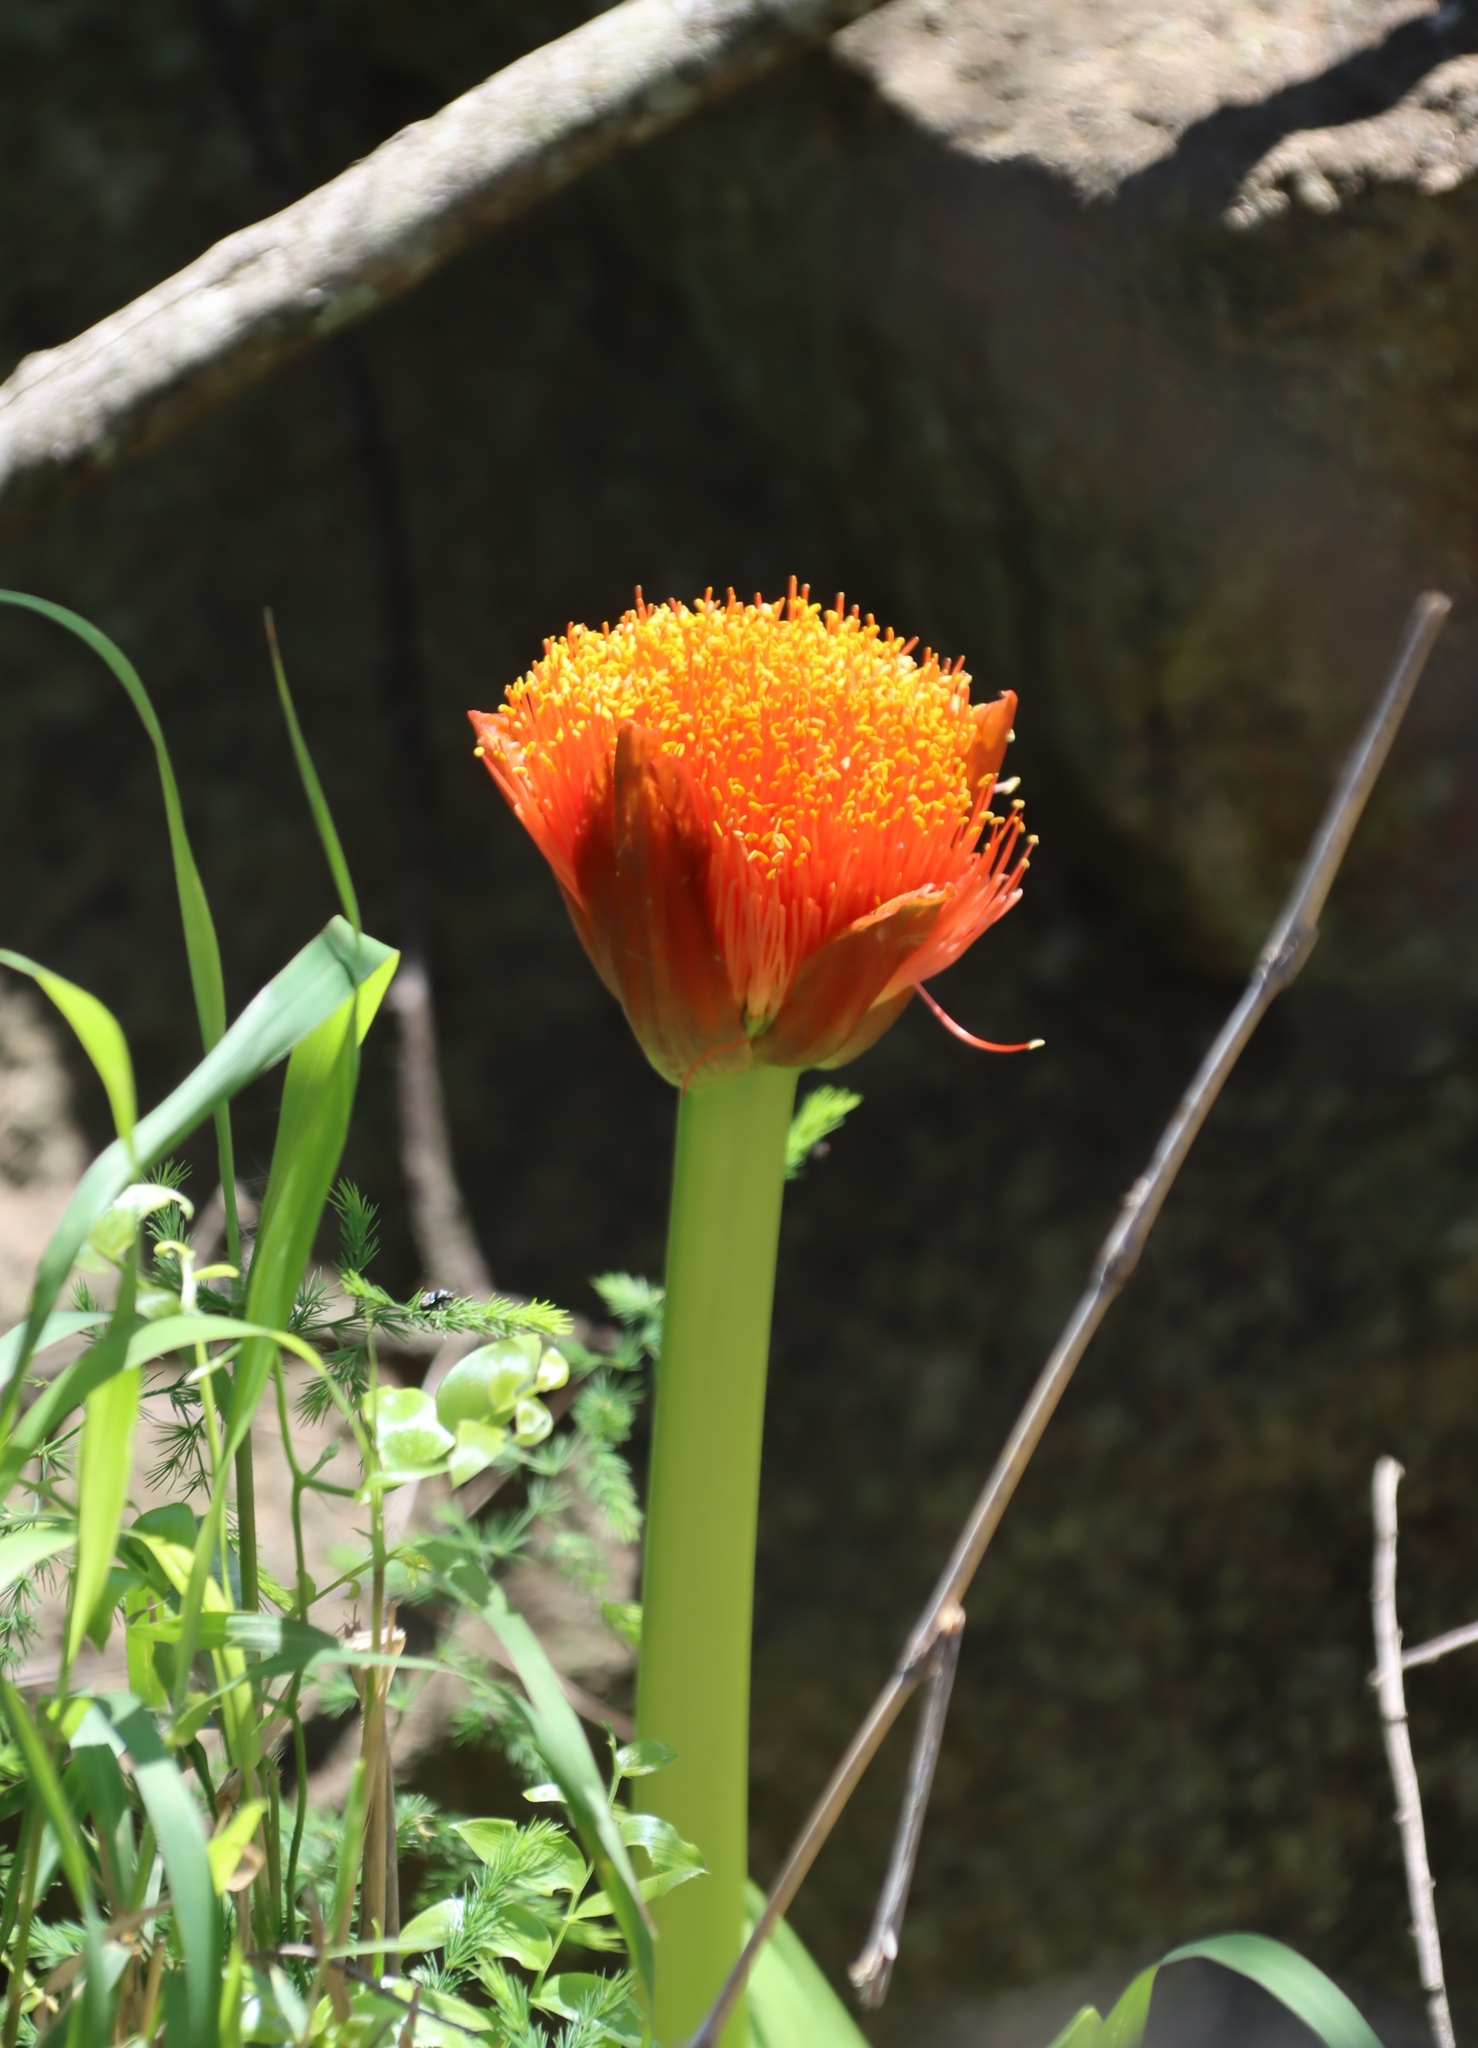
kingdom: Plantae
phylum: Tracheophyta
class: Liliopsida
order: Asparagales
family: Amaryllidaceae
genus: Scadoxus
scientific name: Scadoxus puniceus
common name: Royal-paintbrush
